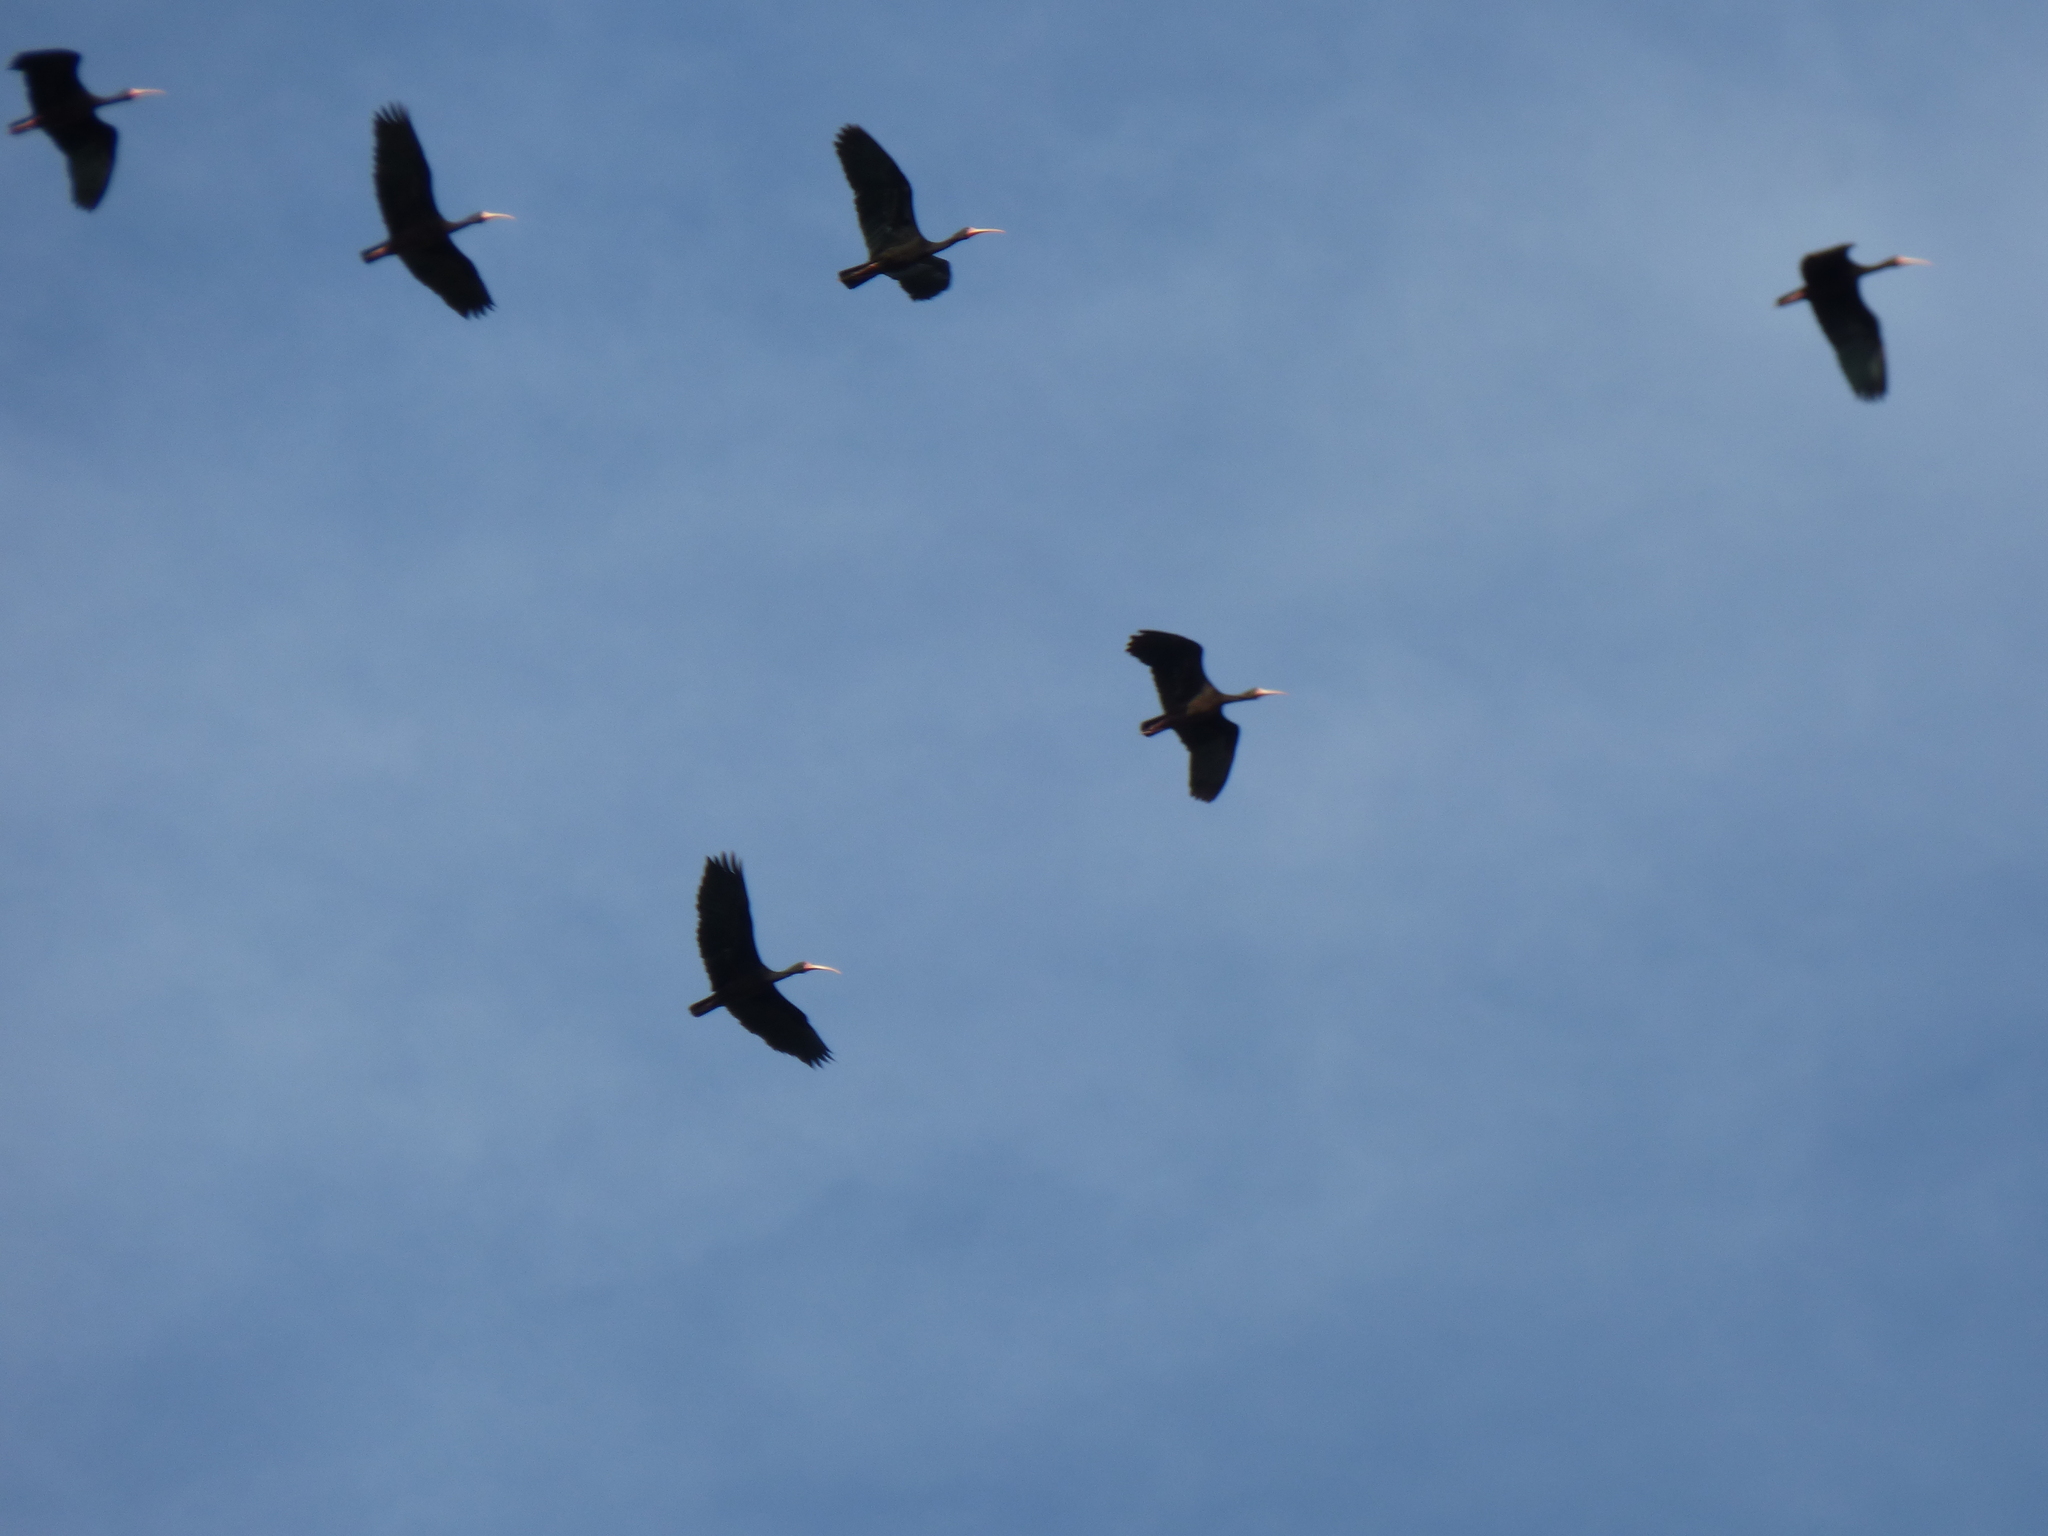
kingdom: Animalia
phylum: Chordata
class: Aves
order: Pelecaniformes
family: Threskiornithidae
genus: Phimosus
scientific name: Phimosus infuscatus
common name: Bare-faced ibis
